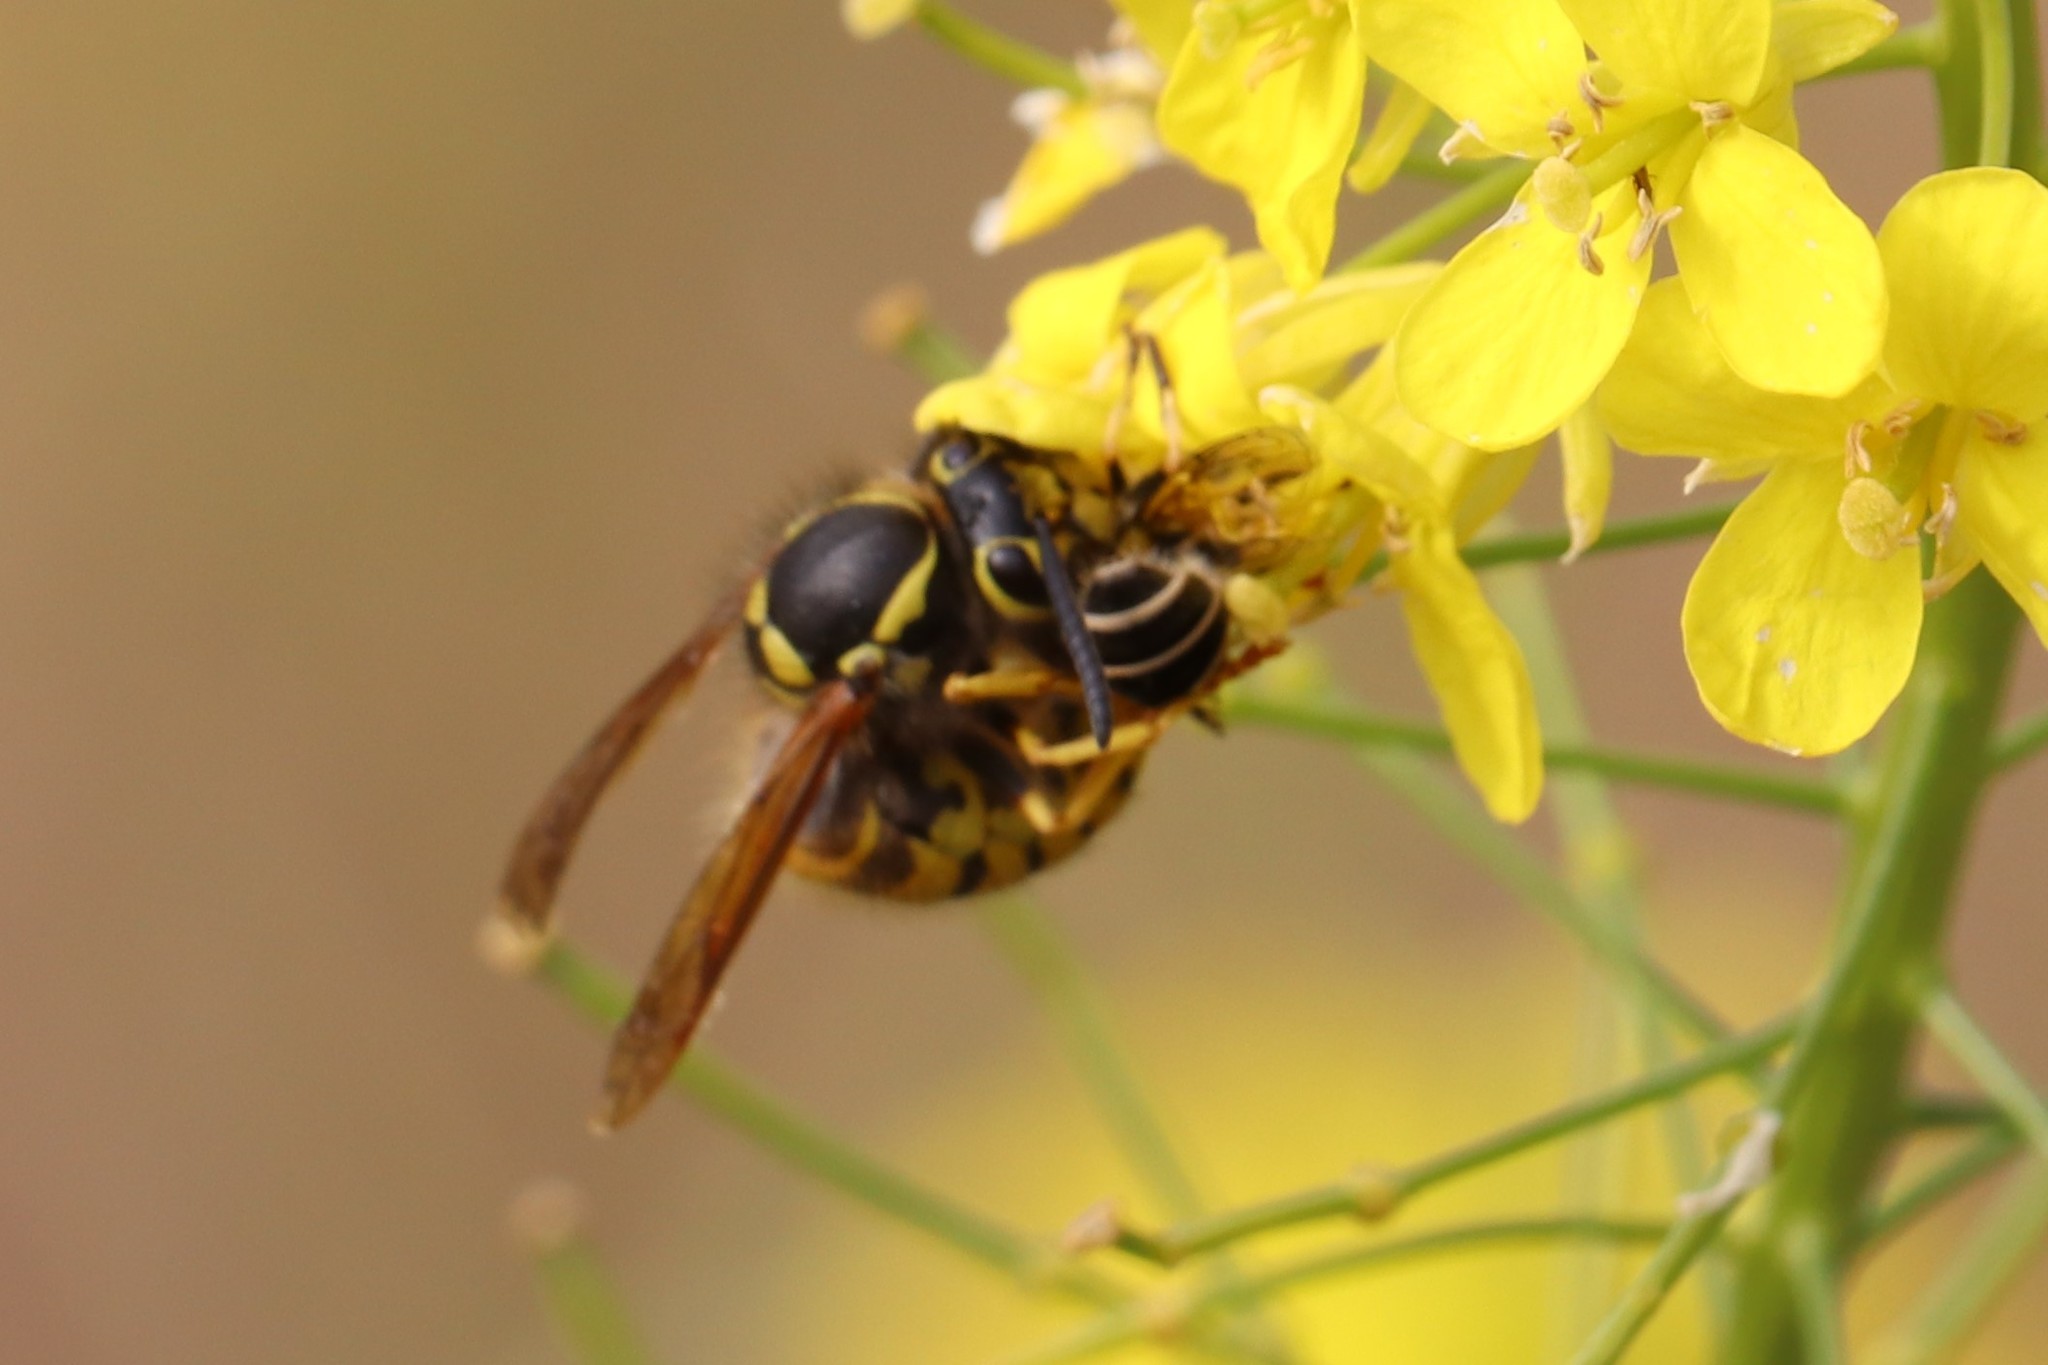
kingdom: Animalia
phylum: Arthropoda
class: Insecta
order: Hymenoptera
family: Vespidae
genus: Vespula
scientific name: Vespula pensylvanica
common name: Western yellowjacket
